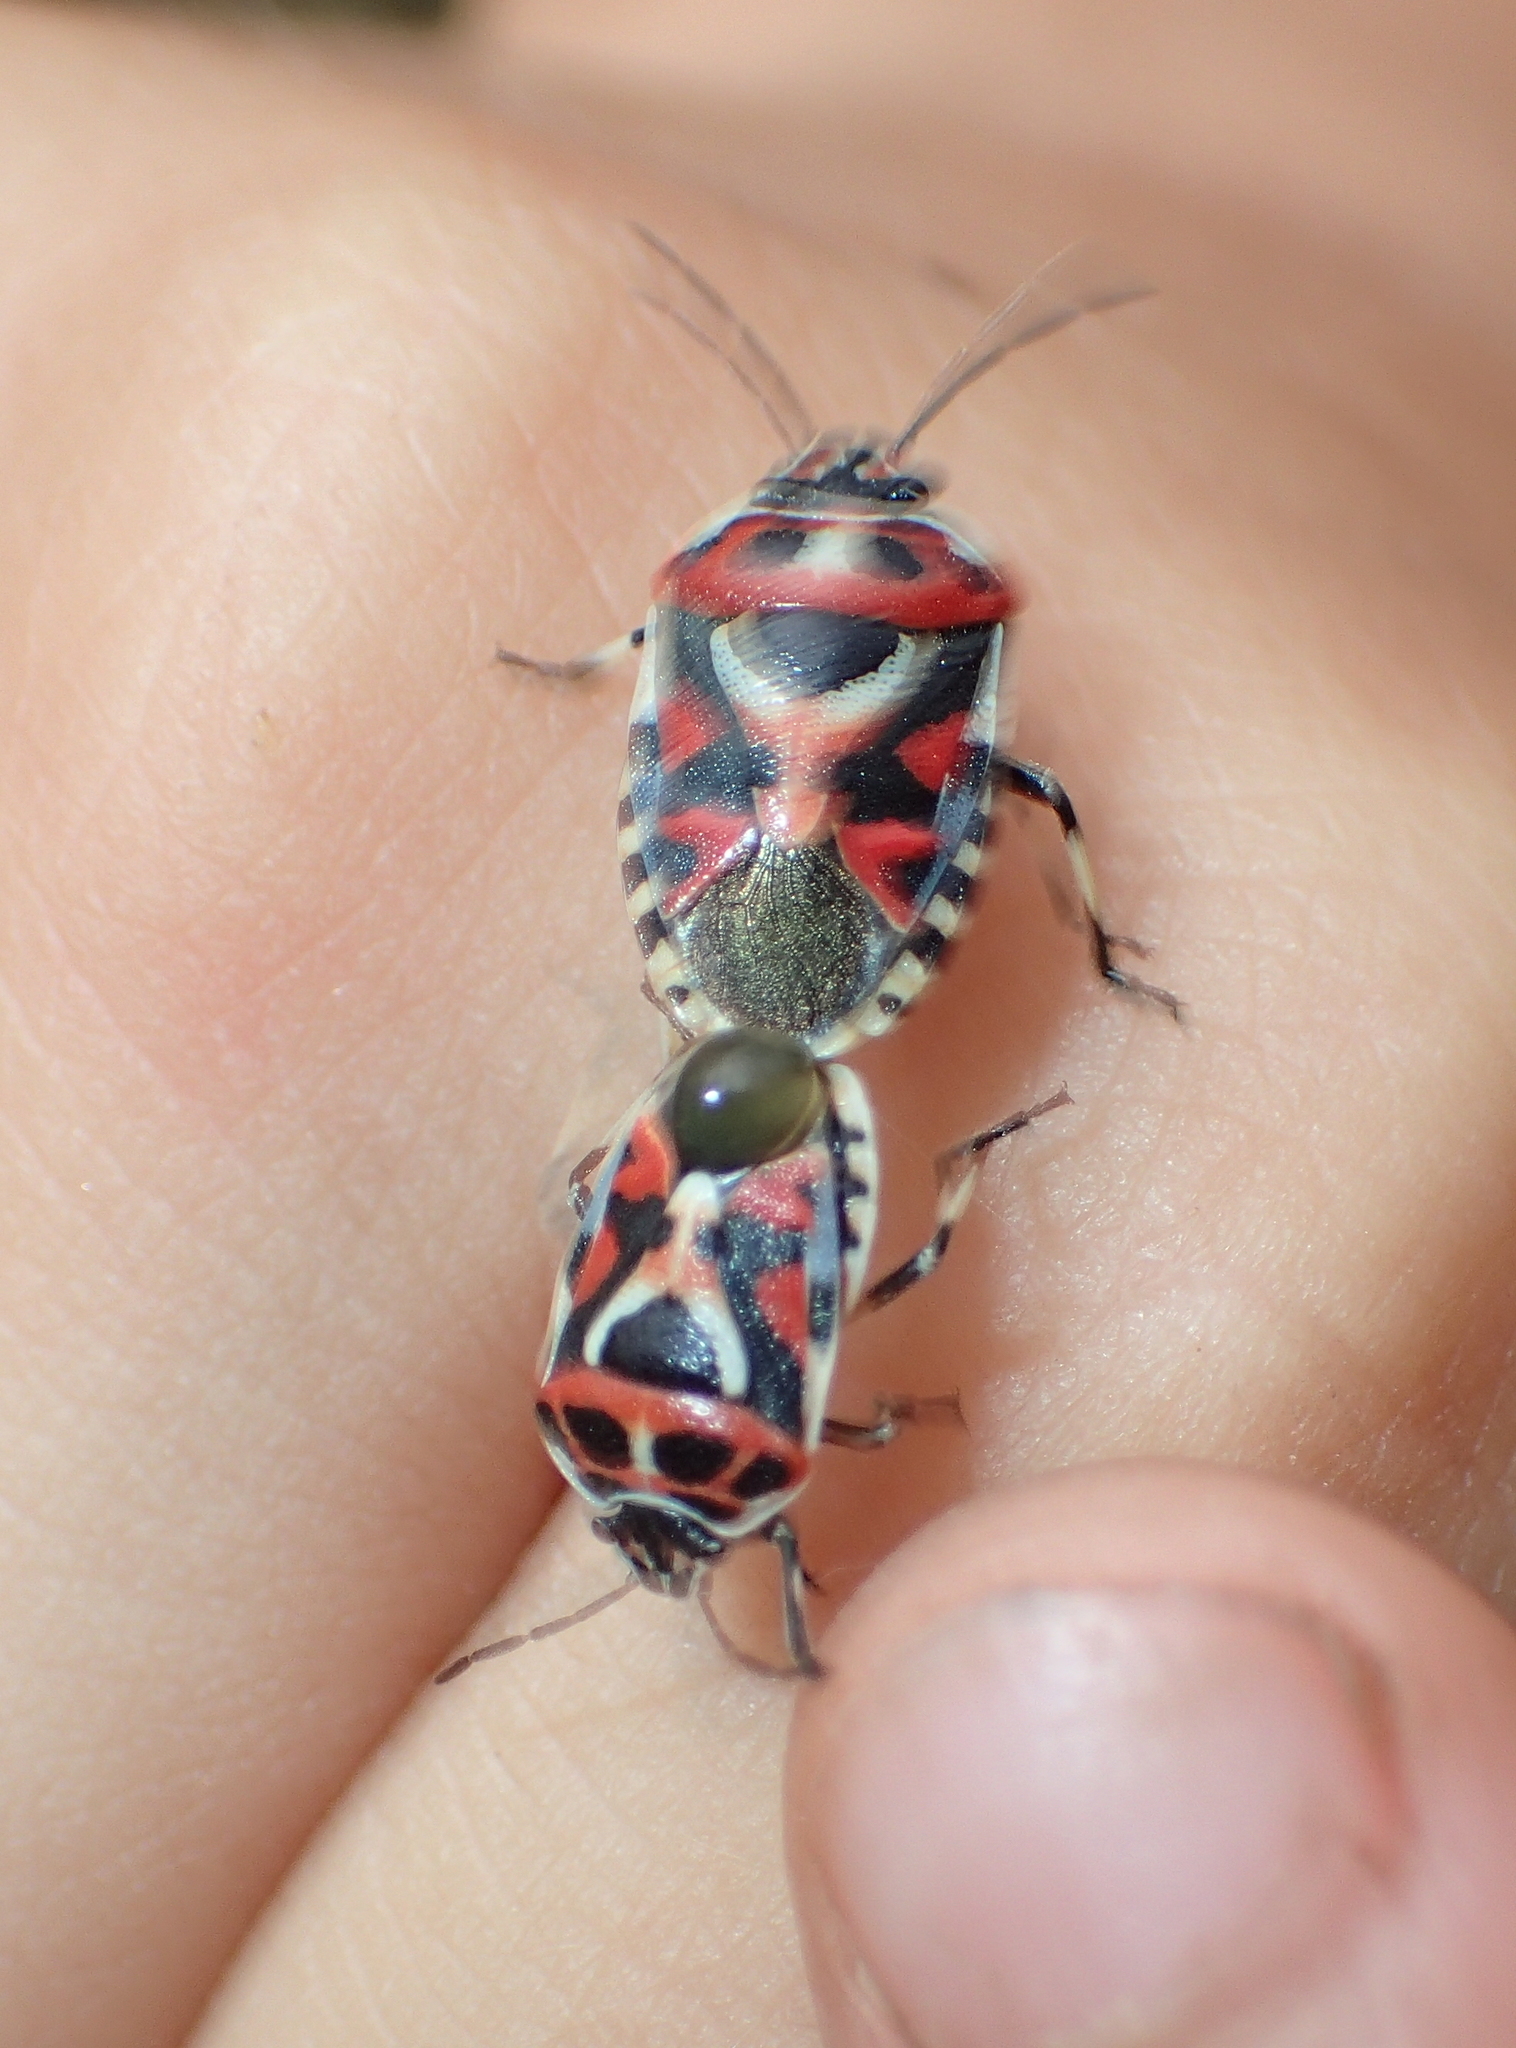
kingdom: Animalia
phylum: Arthropoda
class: Insecta
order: Hemiptera
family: Pentatomidae
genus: Eurydema
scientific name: Eurydema ornata
